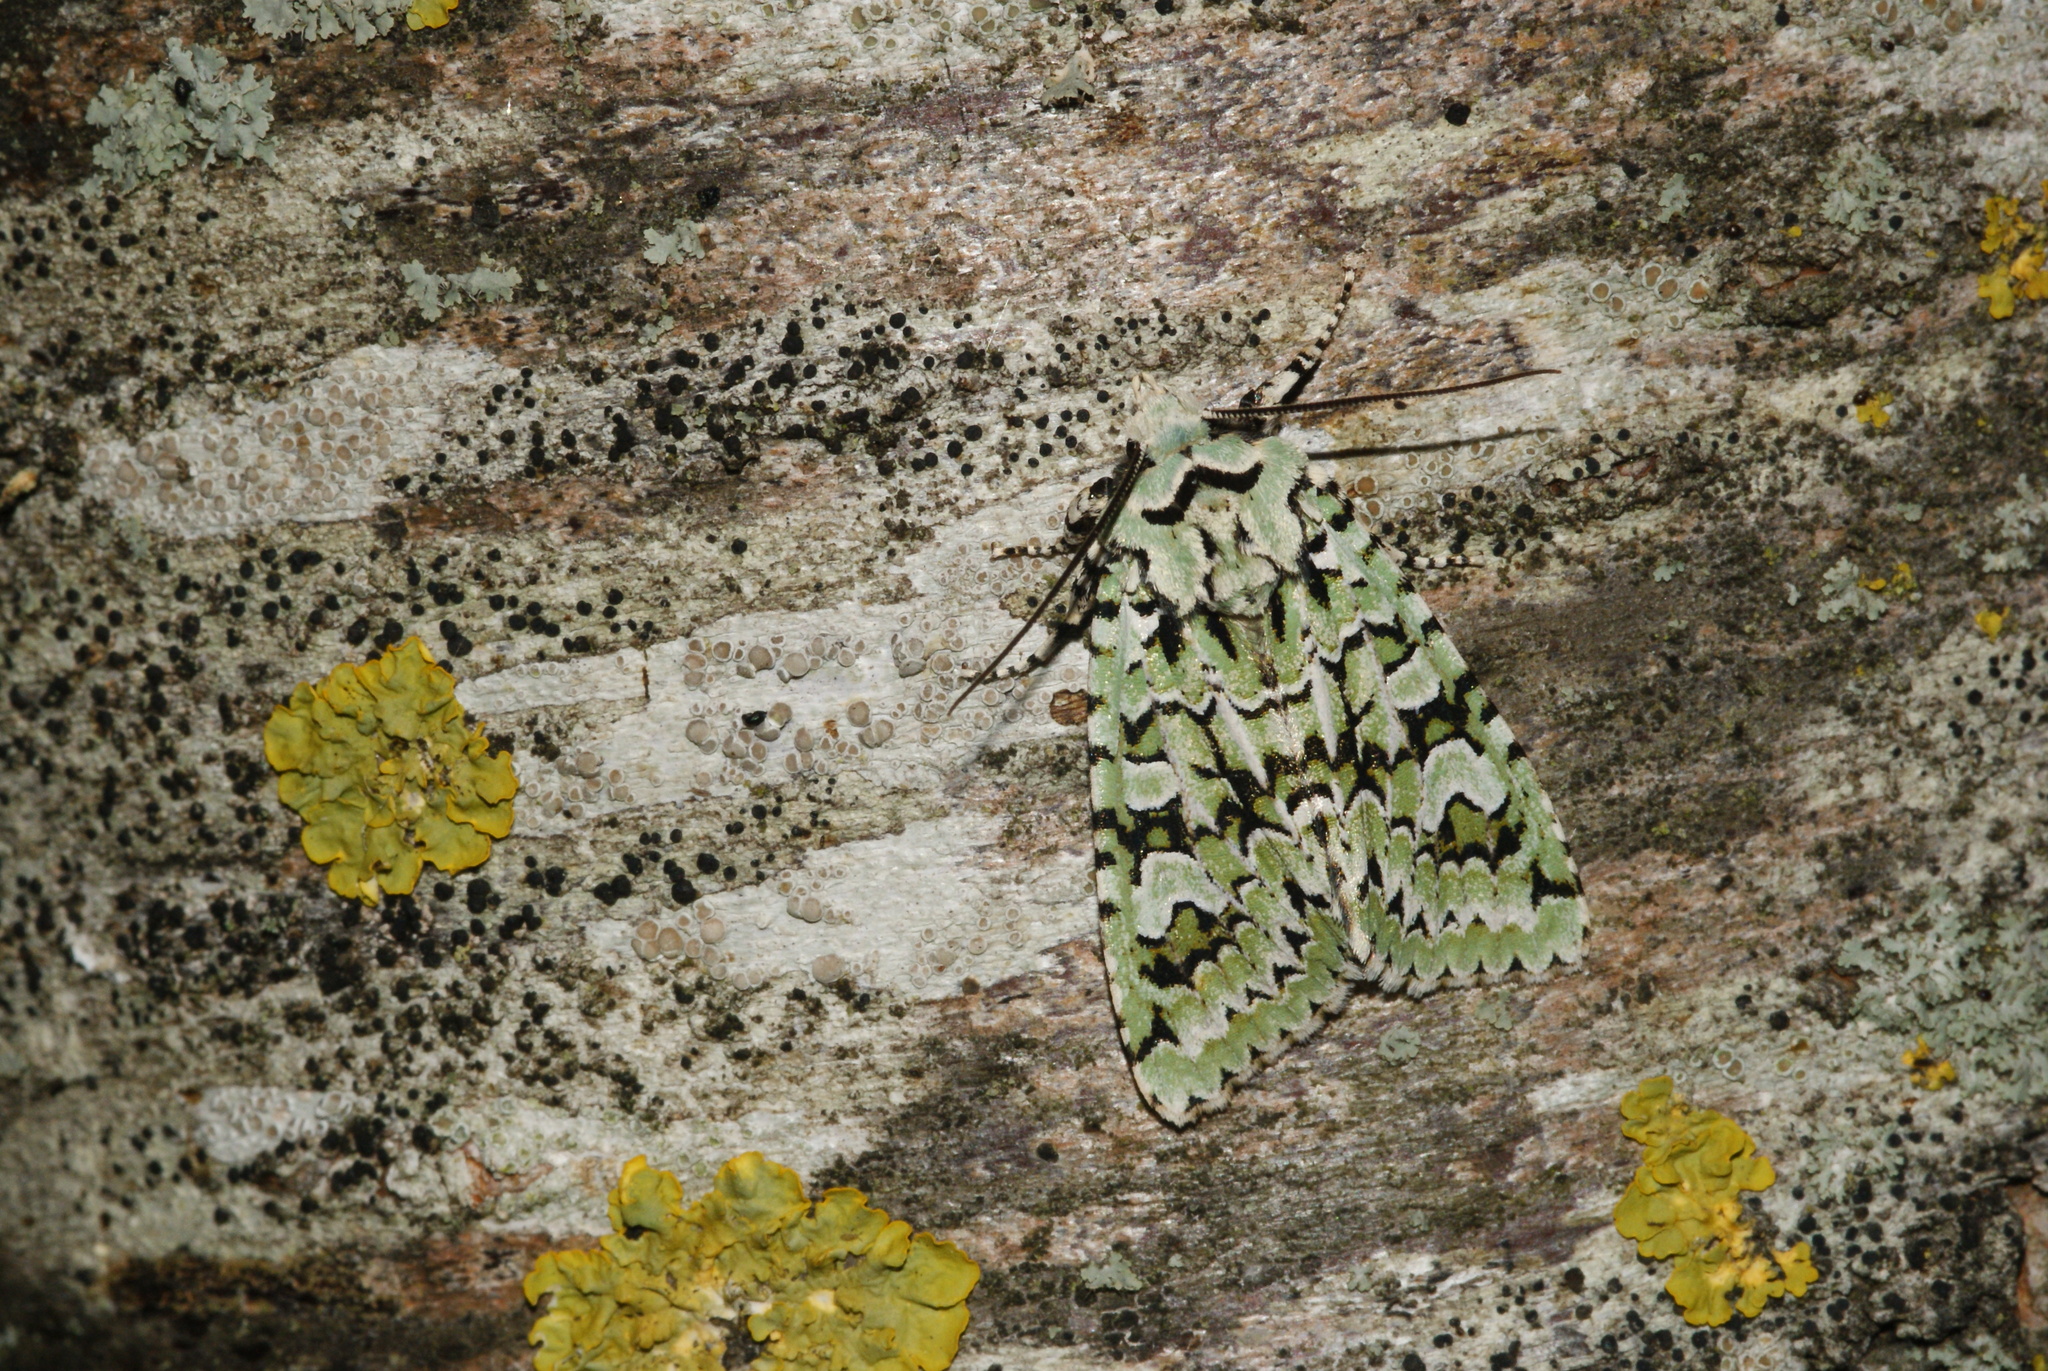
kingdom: Fungi
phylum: Ascomycota
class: Lecanoromycetes
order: Teloschistales
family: Teloschistaceae
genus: Xanthoria
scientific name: Xanthoria parietina
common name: Common orange lichen
